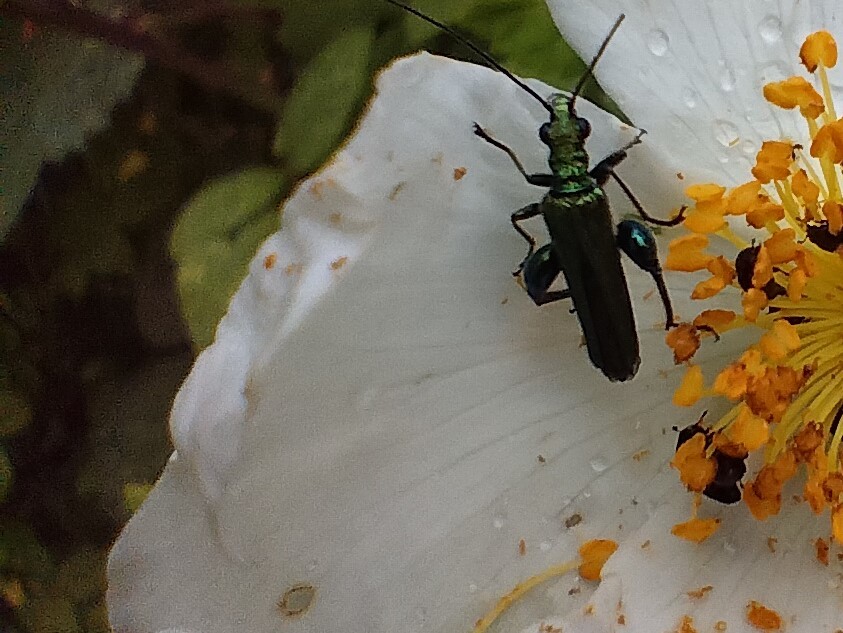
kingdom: Animalia
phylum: Arthropoda
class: Insecta
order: Coleoptera
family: Oedemeridae
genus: Oedemera
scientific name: Oedemera nobilis
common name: Swollen-thighed beetle
